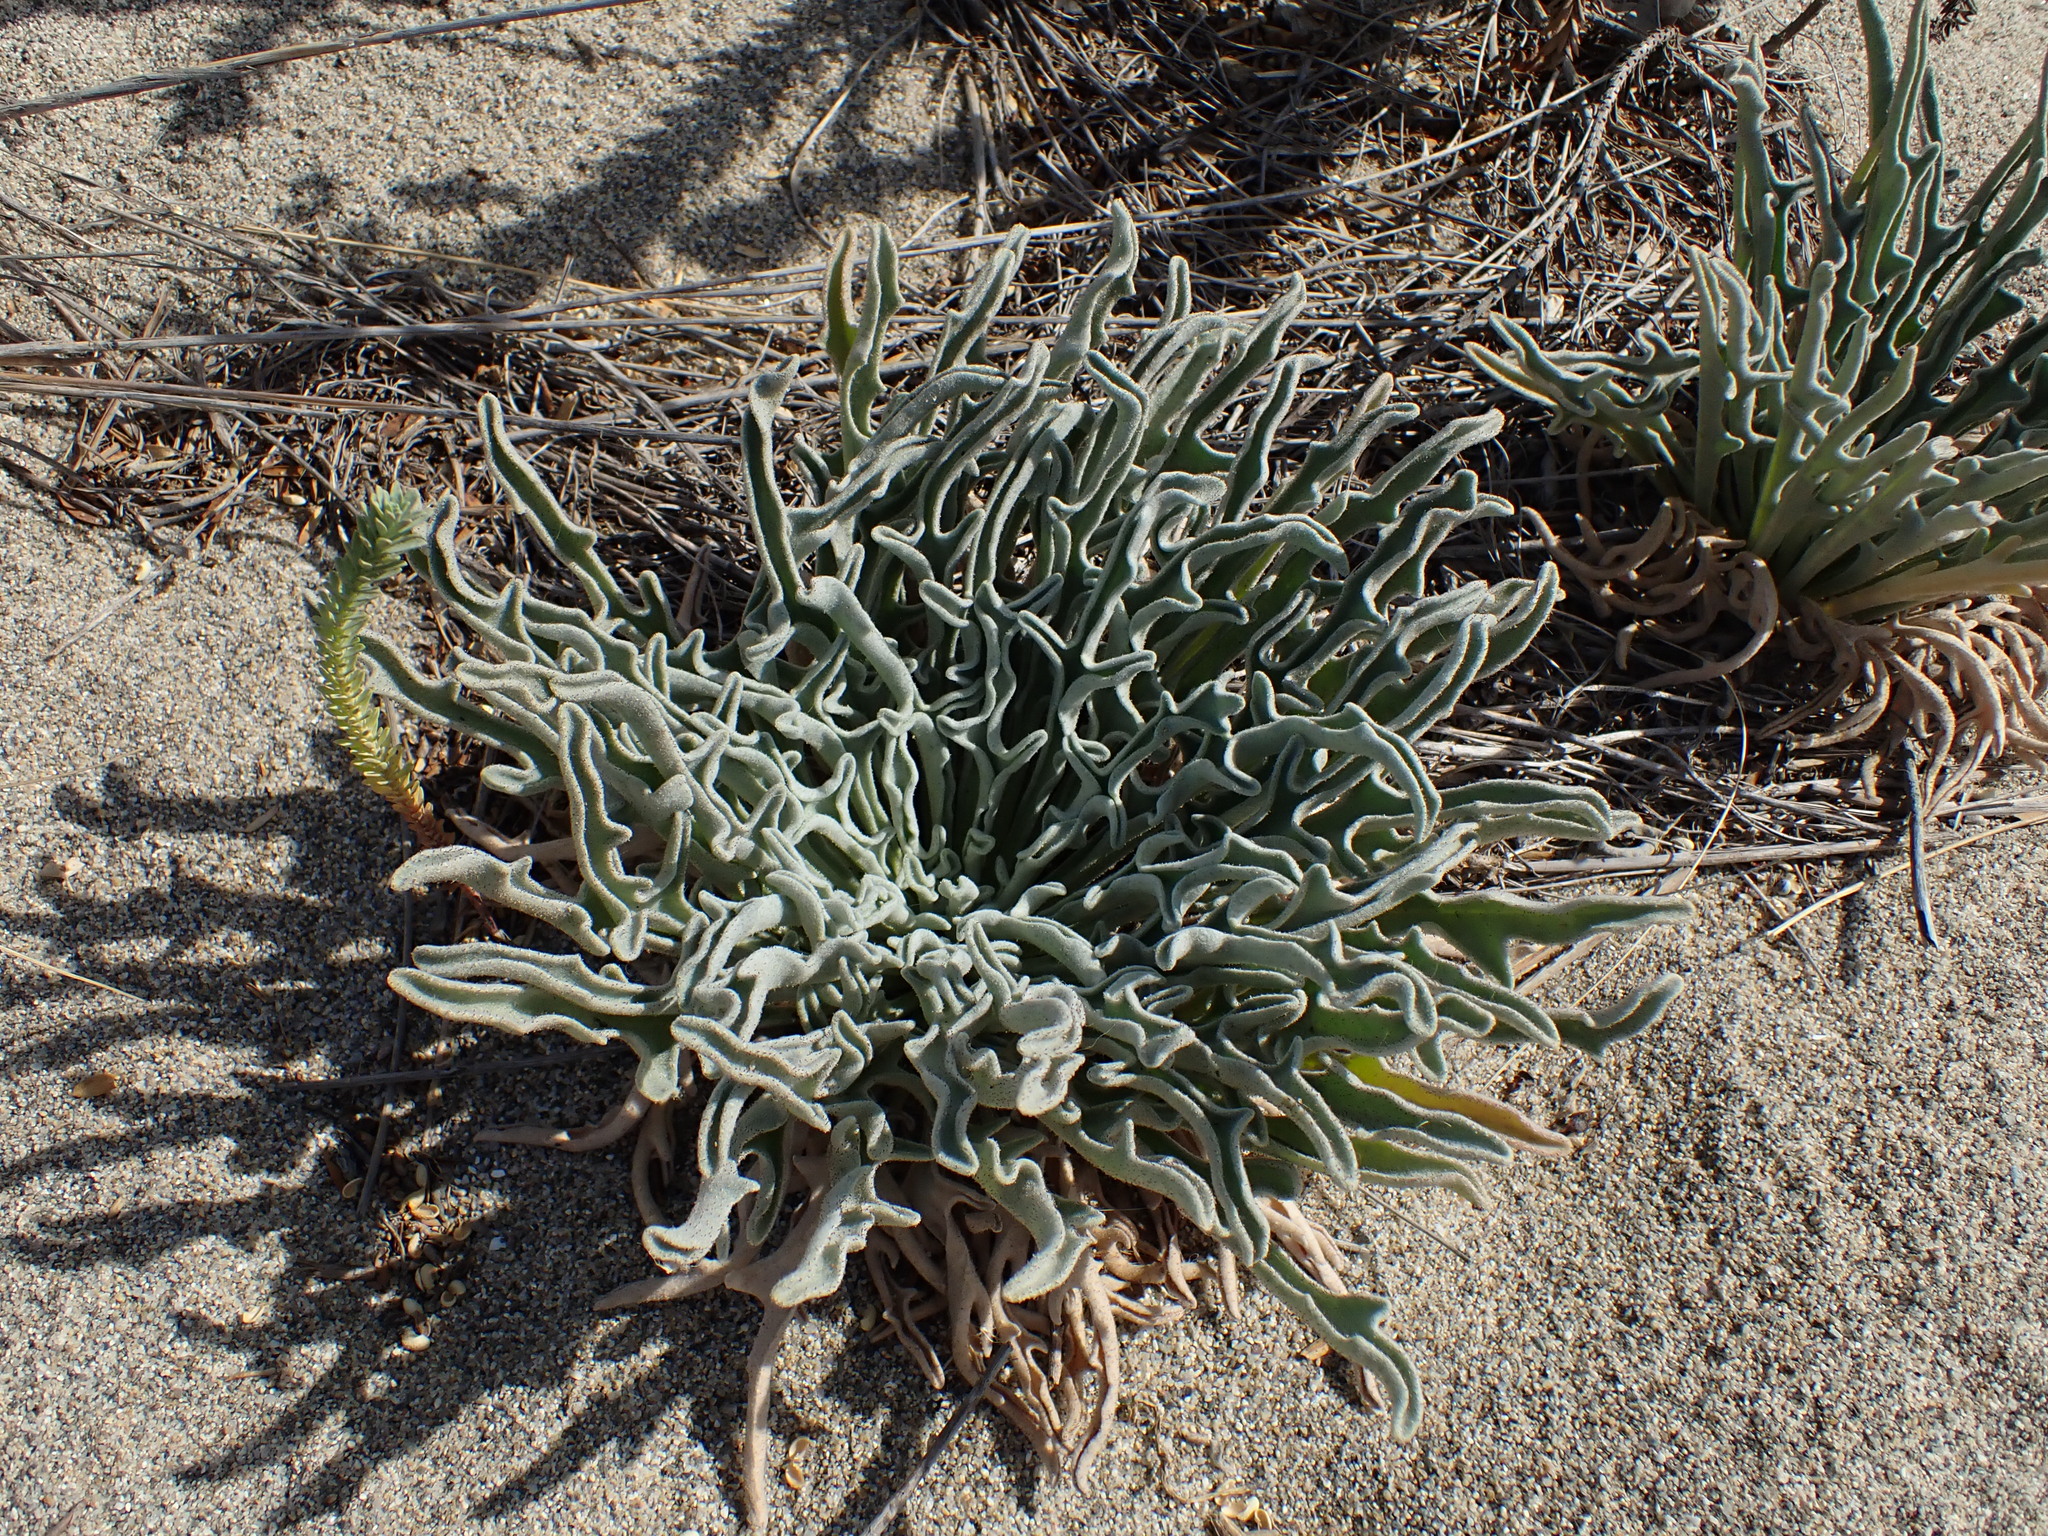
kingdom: Plantae
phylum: Tracheophyta
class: Magnoliopsida
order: Brassicales
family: Brassicaceae
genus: Matthiola
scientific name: Matthiola sinuata
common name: Sea stock
